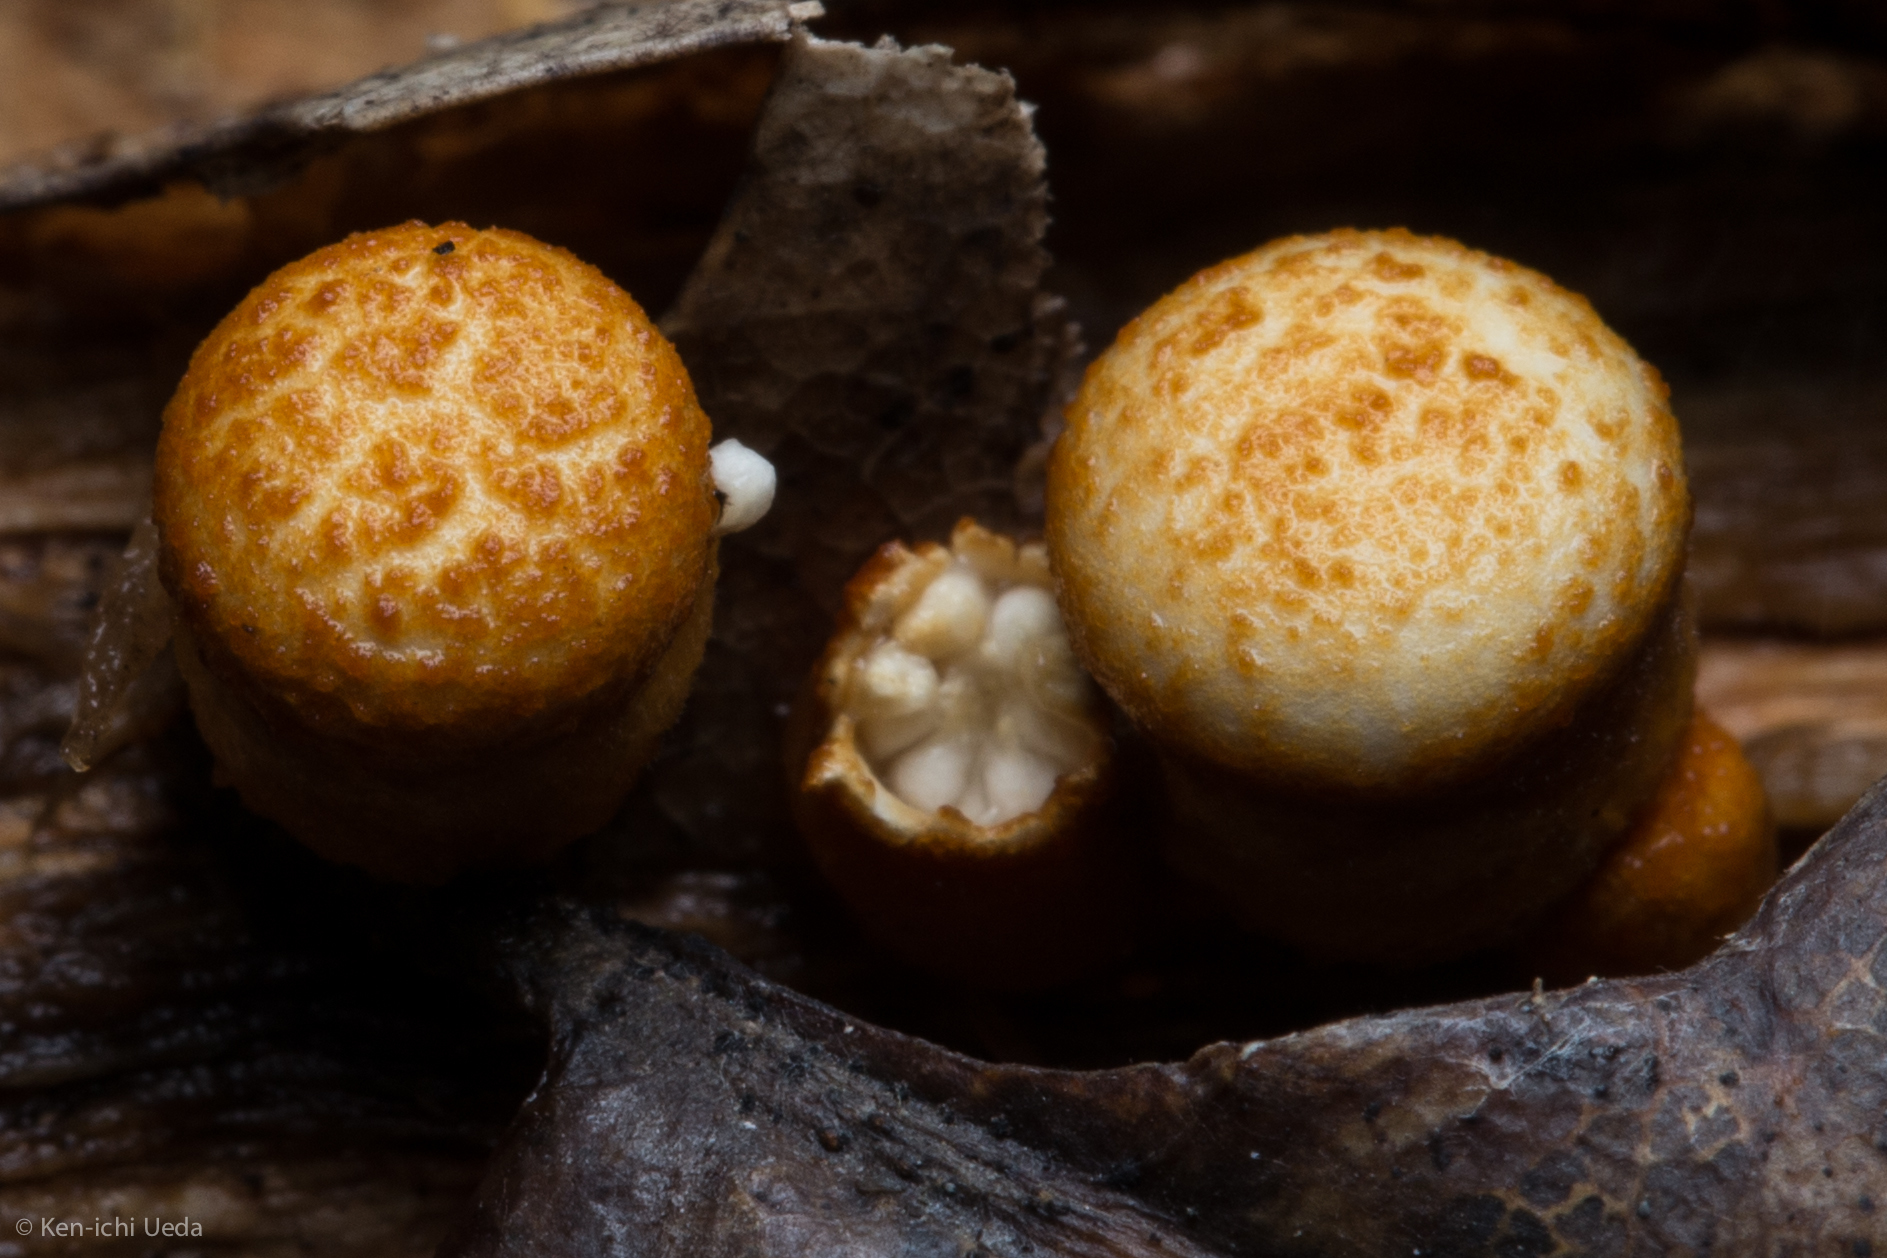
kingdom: Fungi
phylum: Basidiomycota
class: Agaricomycetes
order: Agaricales
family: Nidulariaceae
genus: Crucibulum
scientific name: Crucibulum laeve
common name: Common bird's nest
